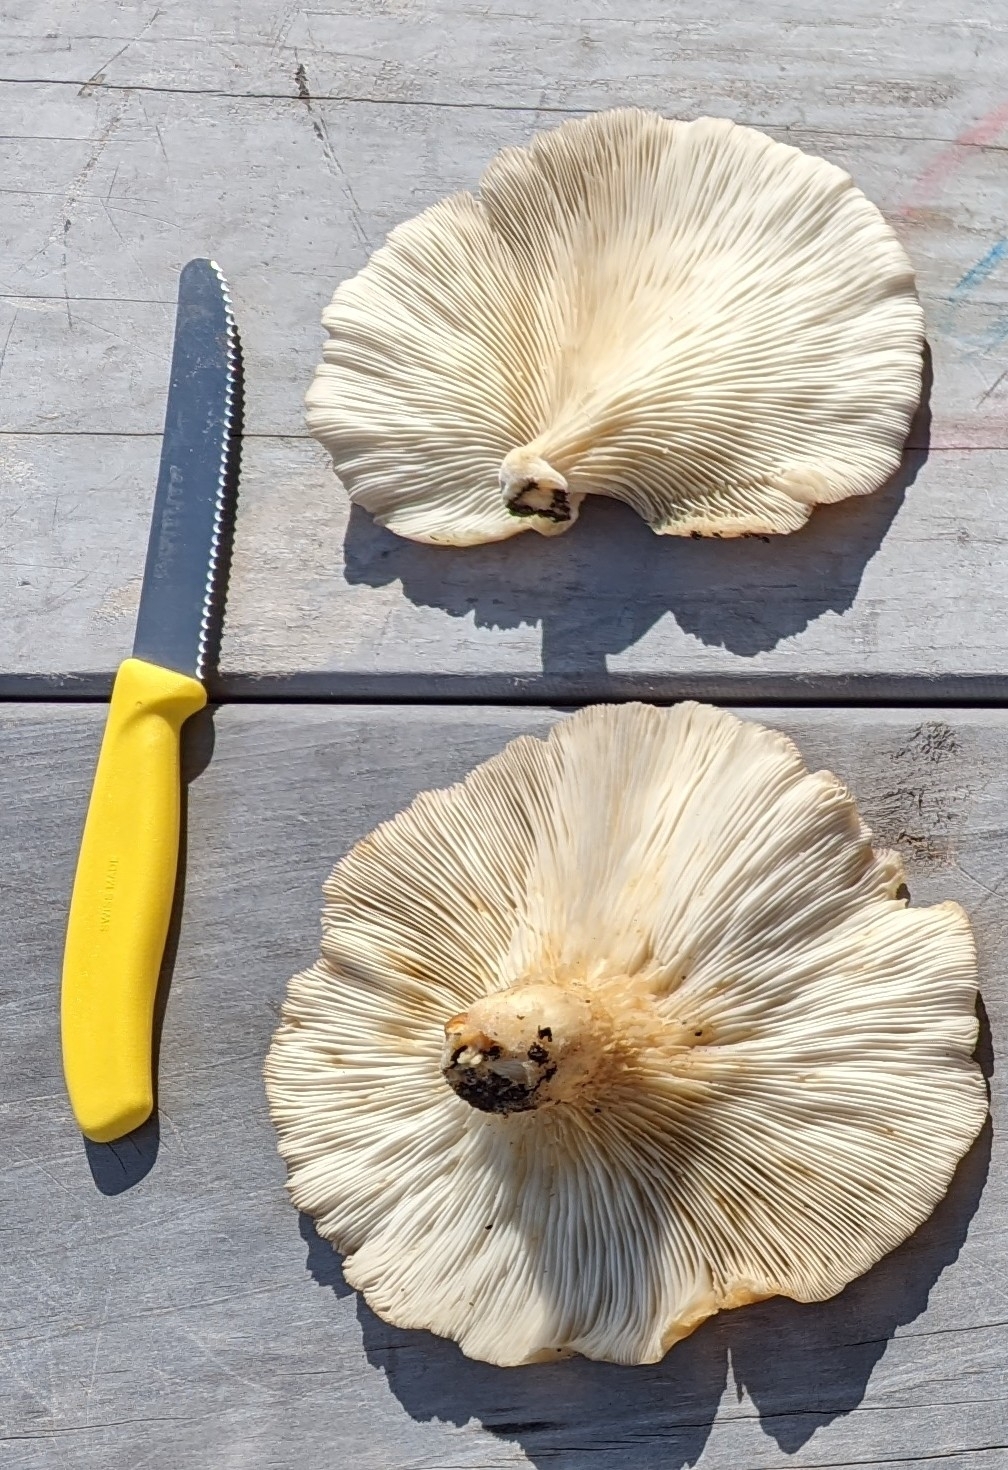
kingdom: Fungi
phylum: Basidiomycota
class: Agaricomycetes
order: Agaricales
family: Pleurotaceae
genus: Pleurotus
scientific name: Pleurotus pulmonarius
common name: Pale oyster
